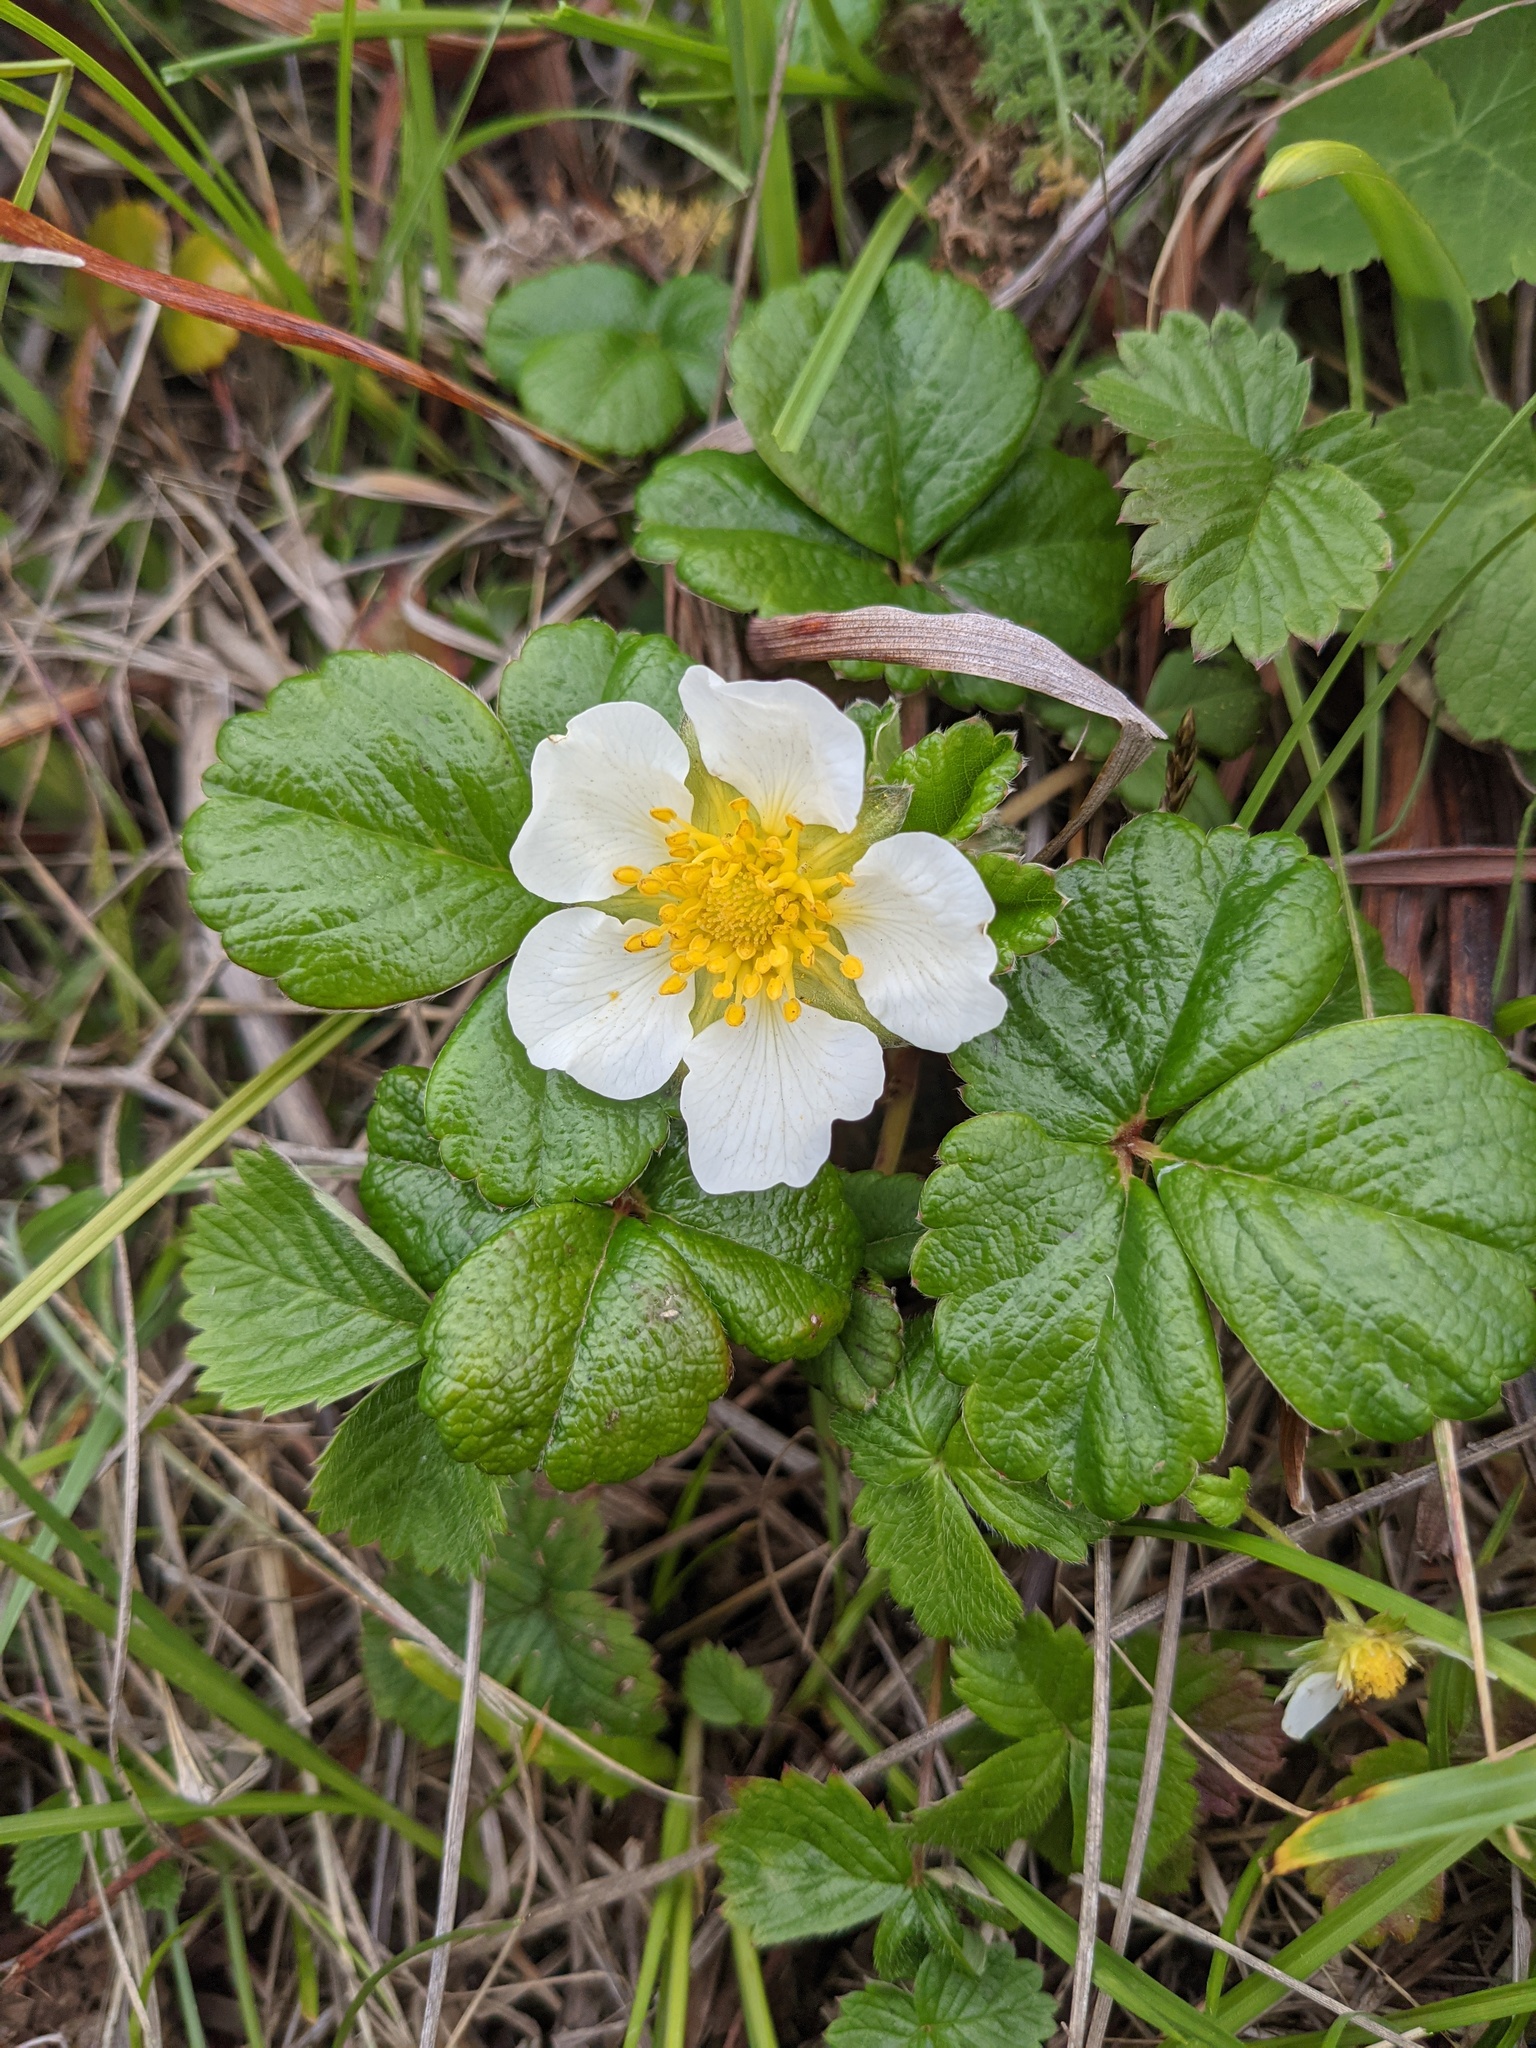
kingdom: Plantae
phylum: Tracheophyta
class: Magnoliopsida
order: Rosales
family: Rosaceae
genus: Fragaria
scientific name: Fragaria chiloensis
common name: Beach strawberry
